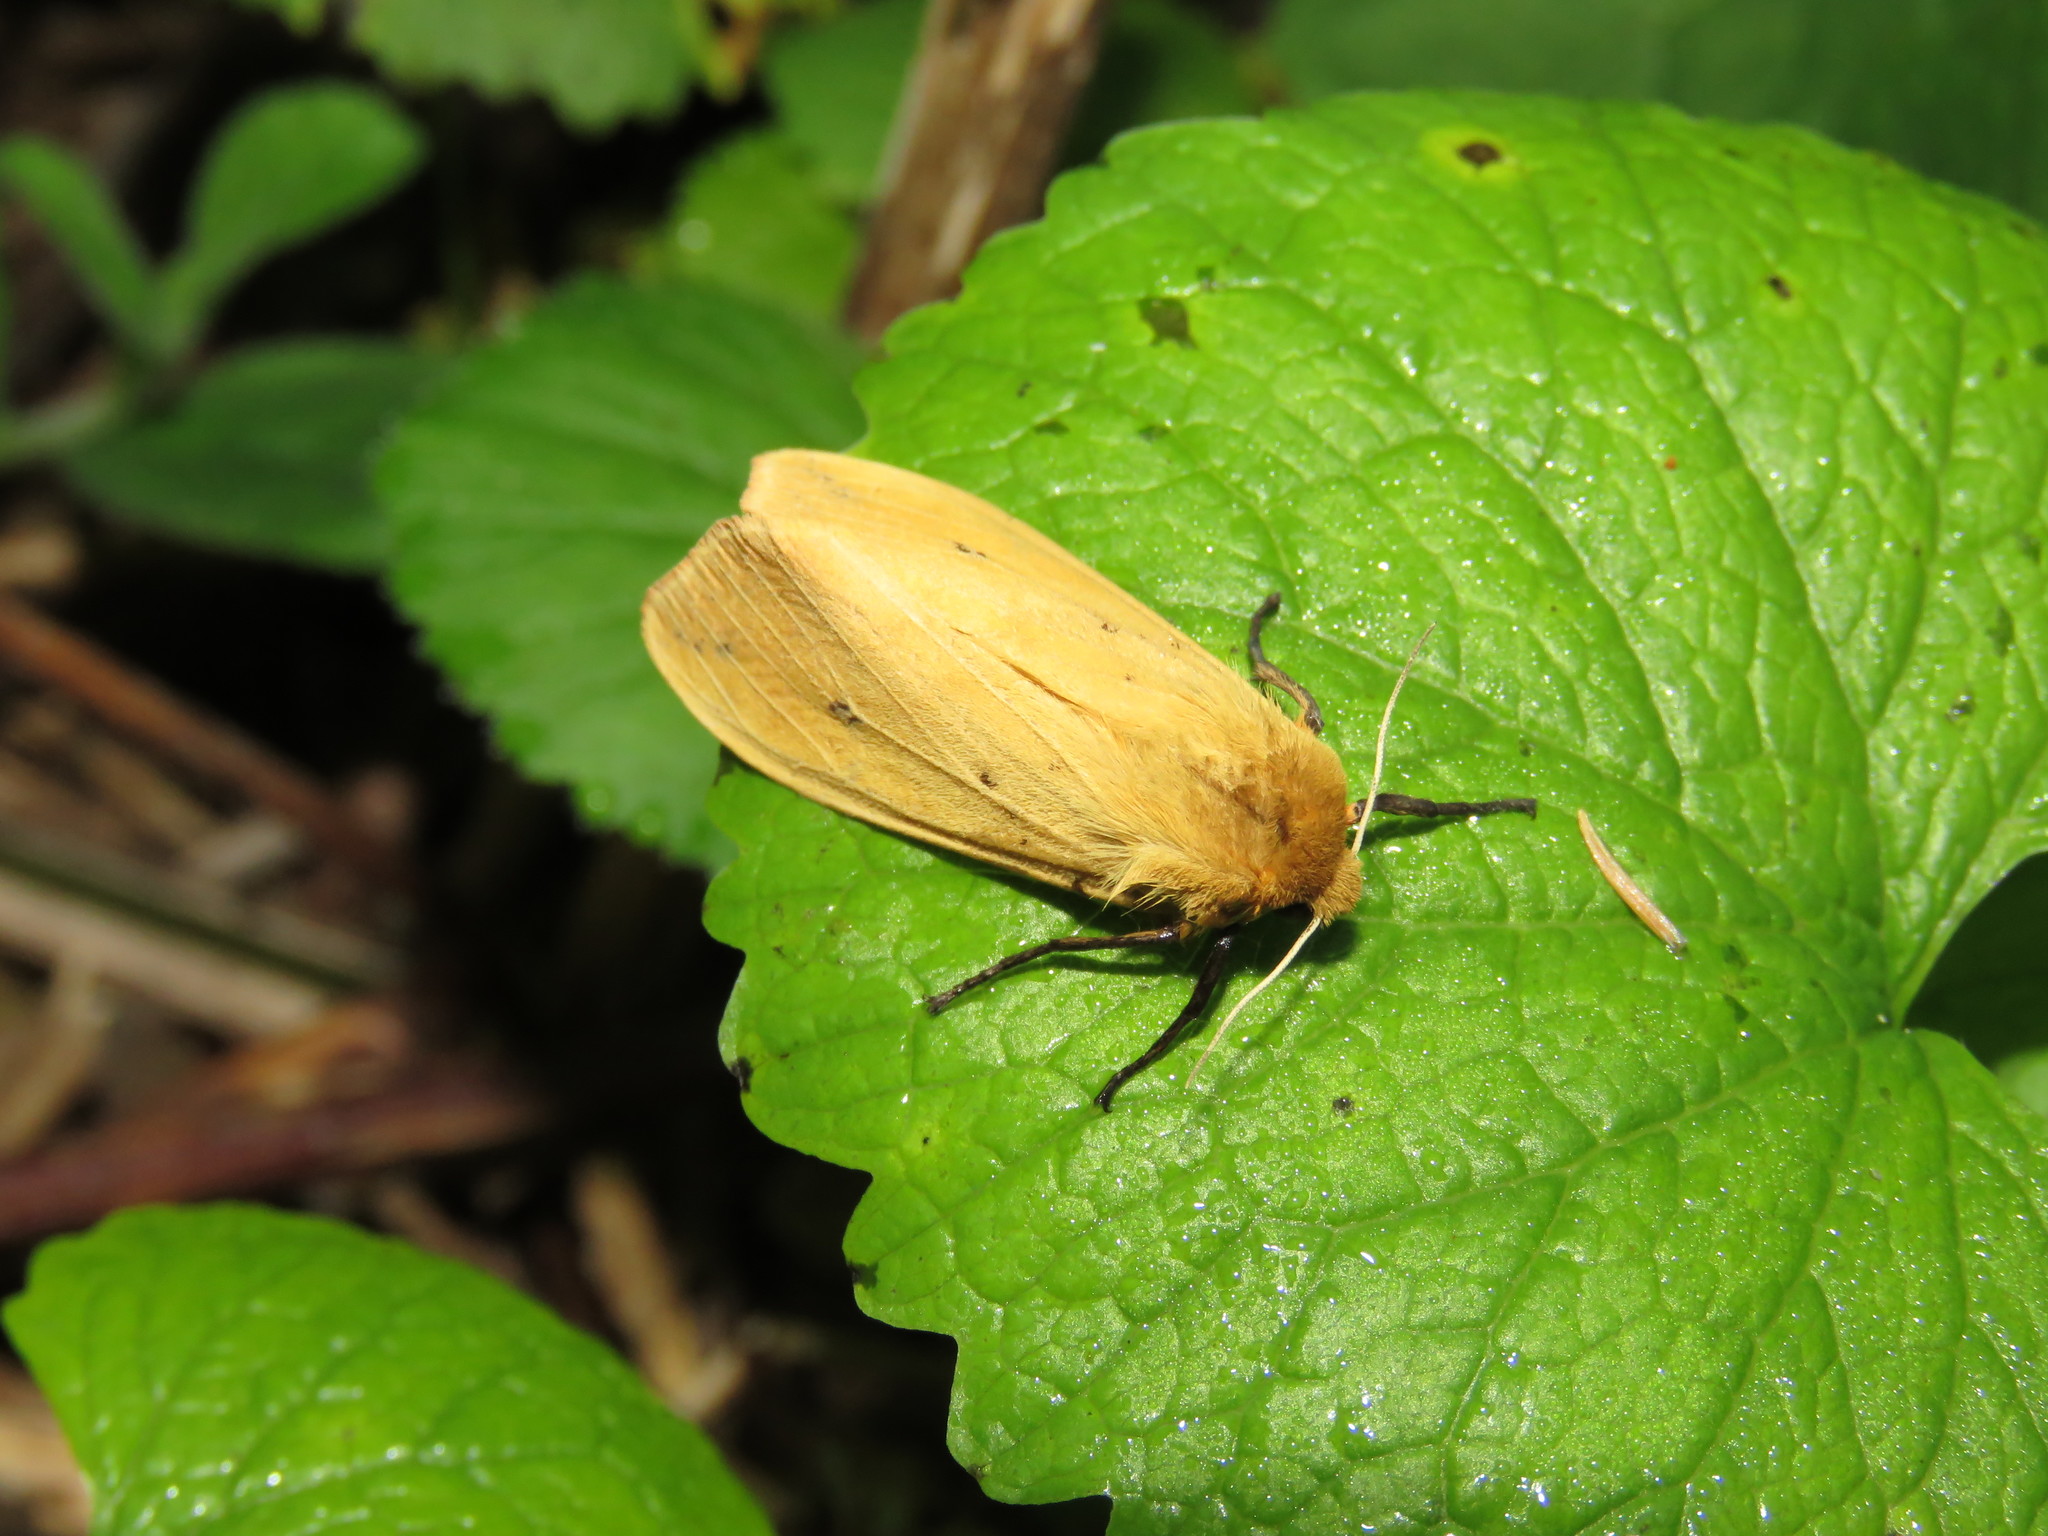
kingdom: Animalia
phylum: Arthropoda
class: Insecta
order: Lepidoptera
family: Erebidae
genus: Pyrrharctia
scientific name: Pyrrharctia isabella
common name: Isabella tiger moth
